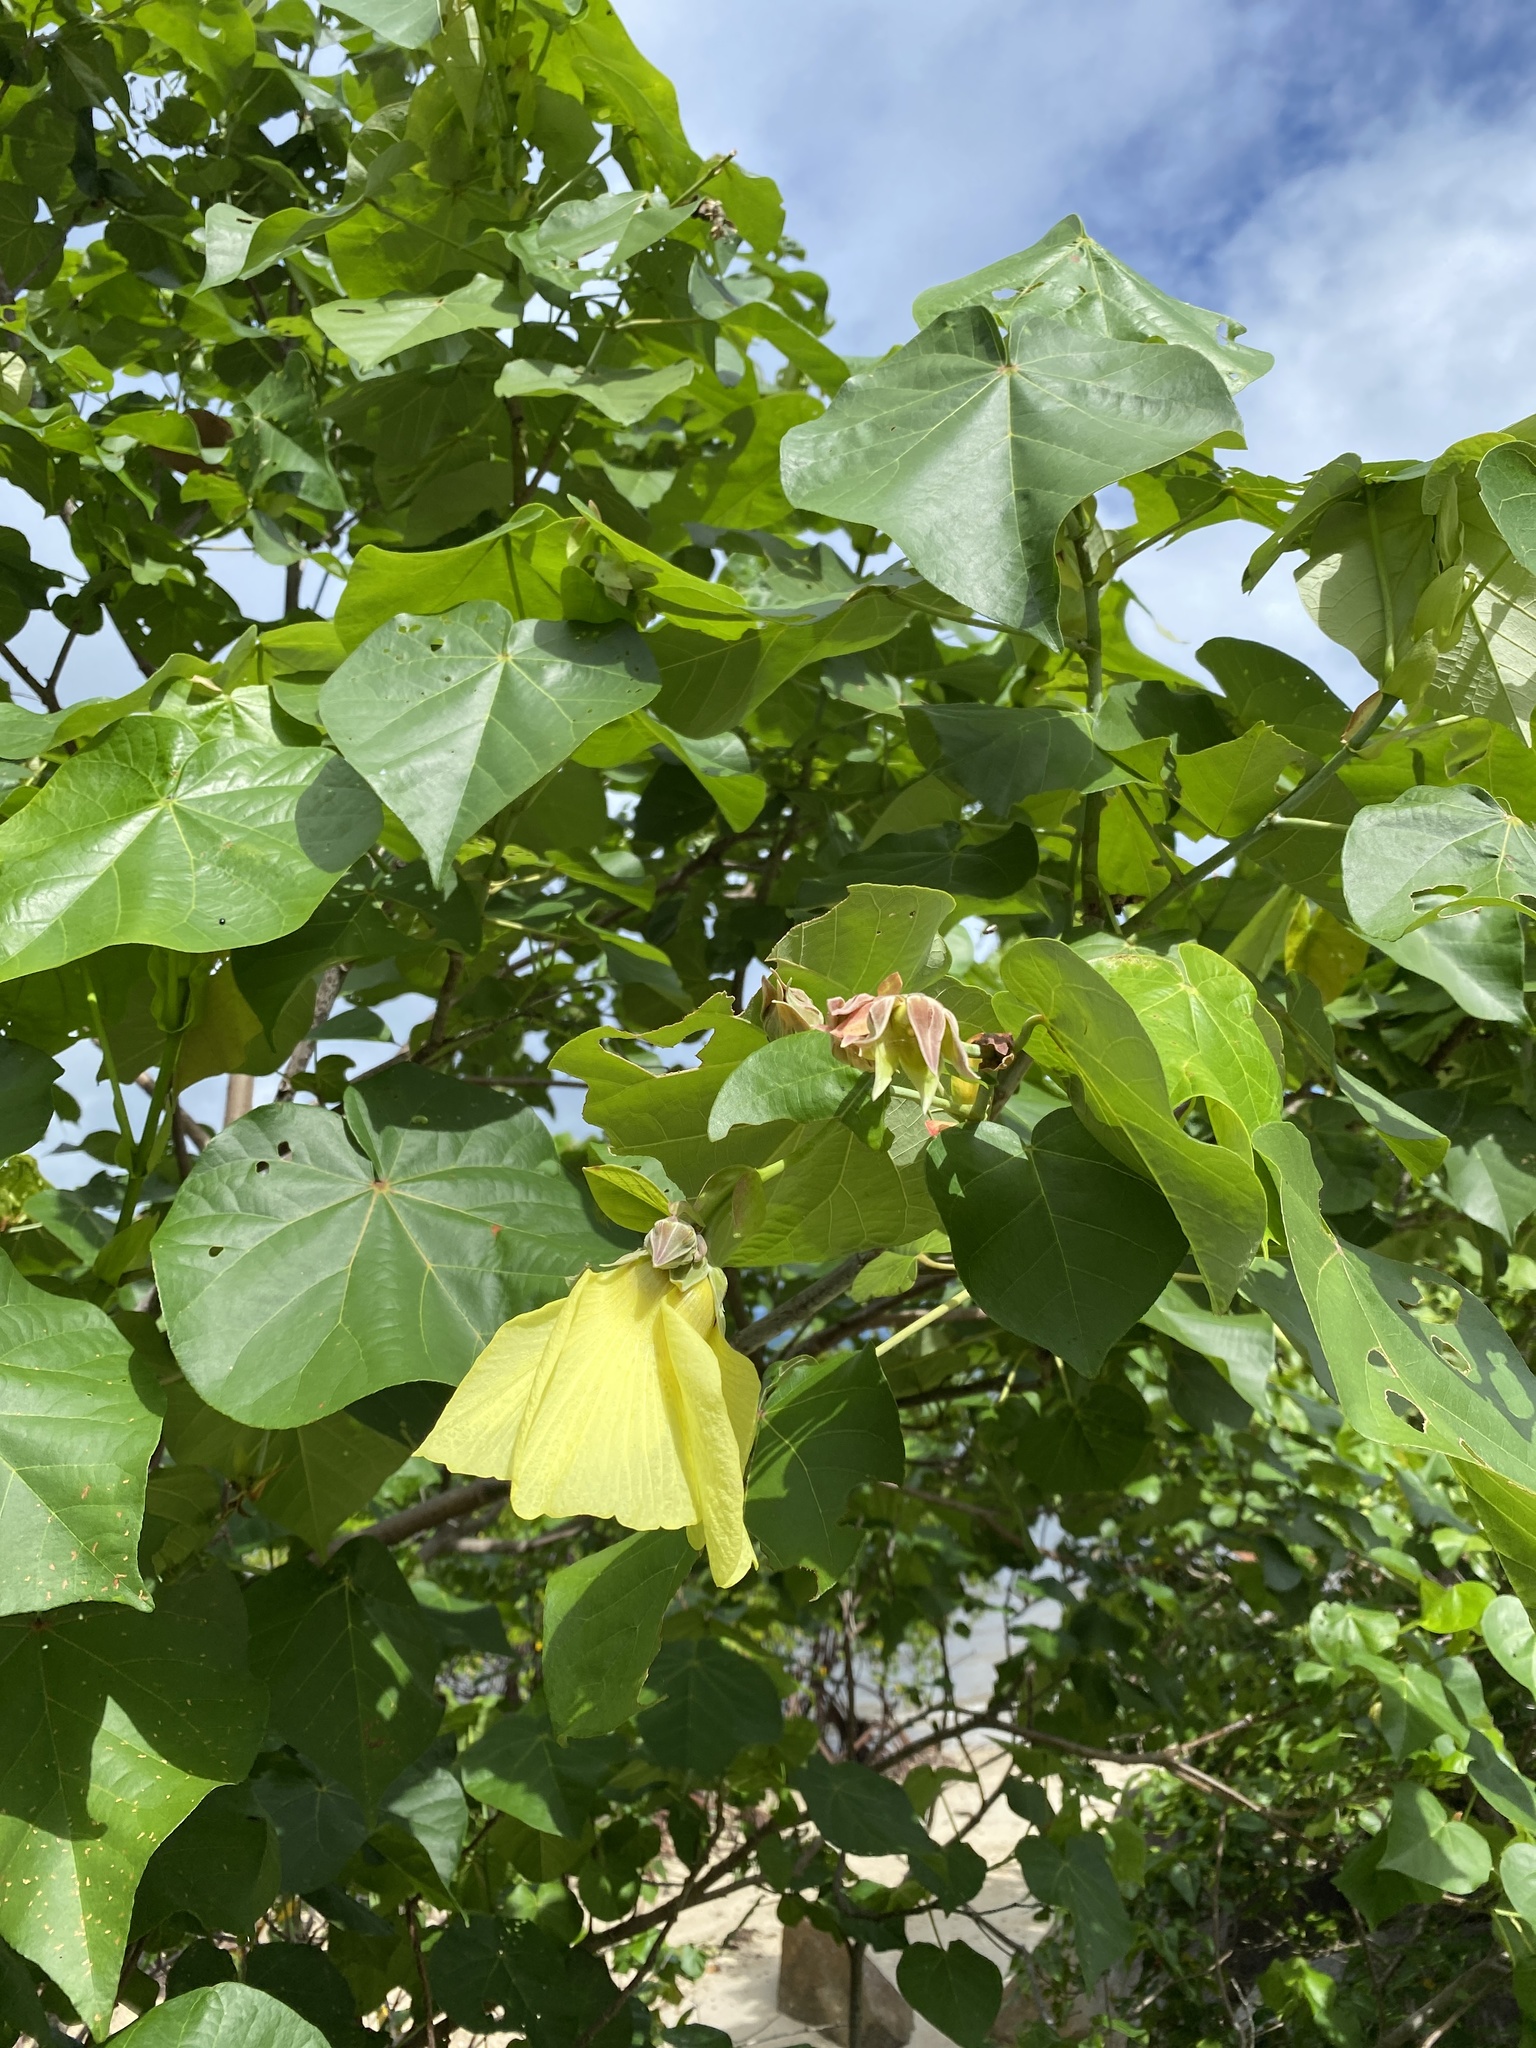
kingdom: Plantae
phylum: Tracheophyta
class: Magnoliopsida
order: Malvales
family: Malvaceae
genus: Talipariti
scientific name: Talipariti tiliaceum
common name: Sea hibiscus
